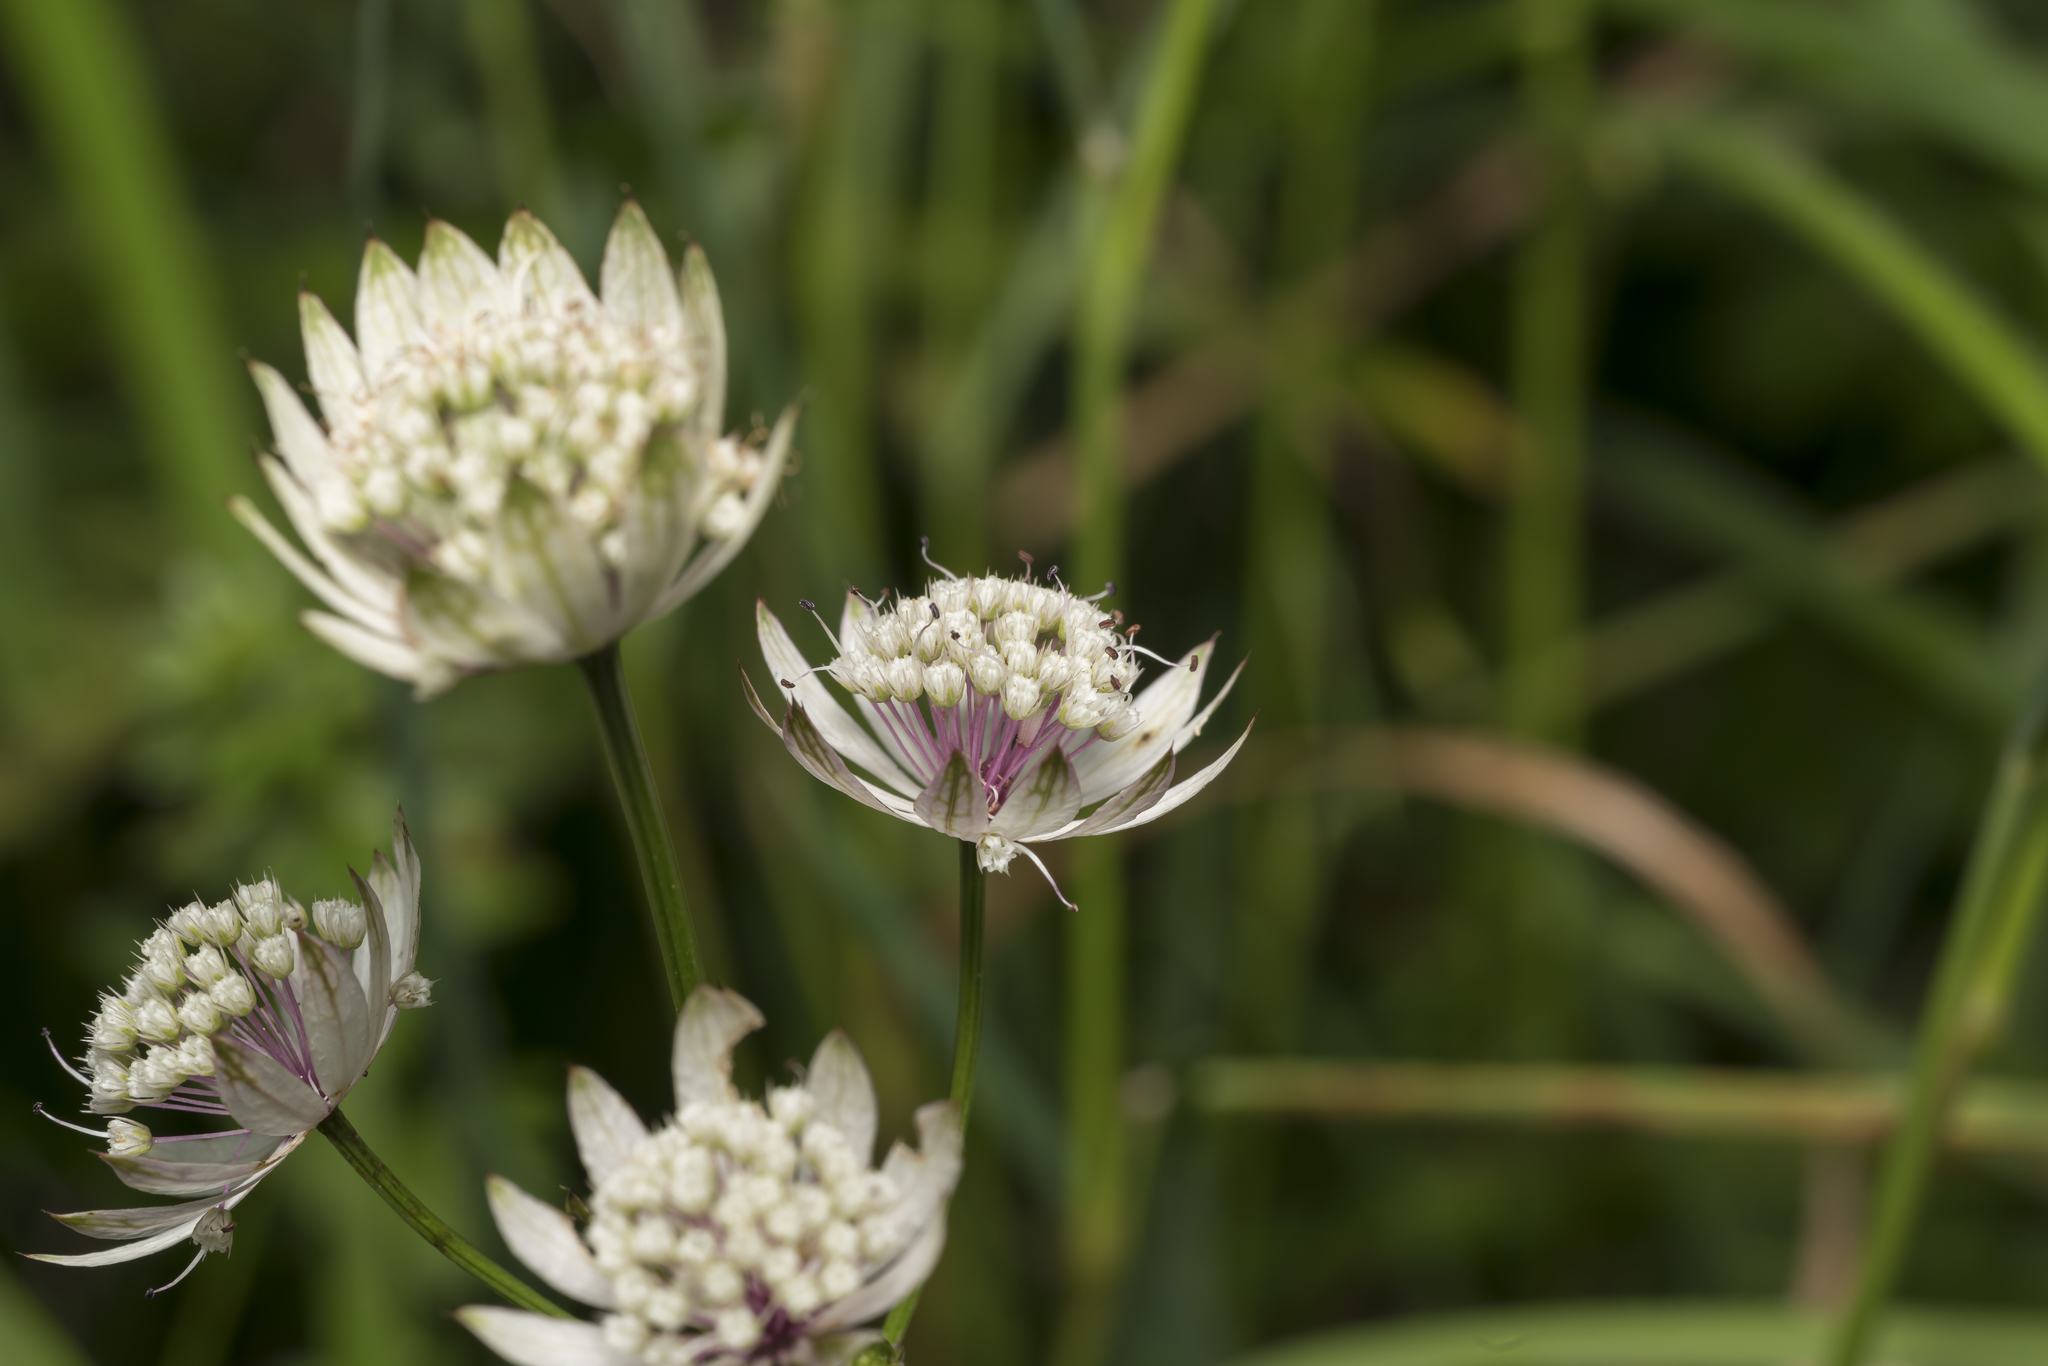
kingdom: Plantae
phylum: Tracheophyta
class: Magnoliopsida
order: Apiales
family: Apiaceae
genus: Astrantia
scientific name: Astrantia major
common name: Greater masterwort
